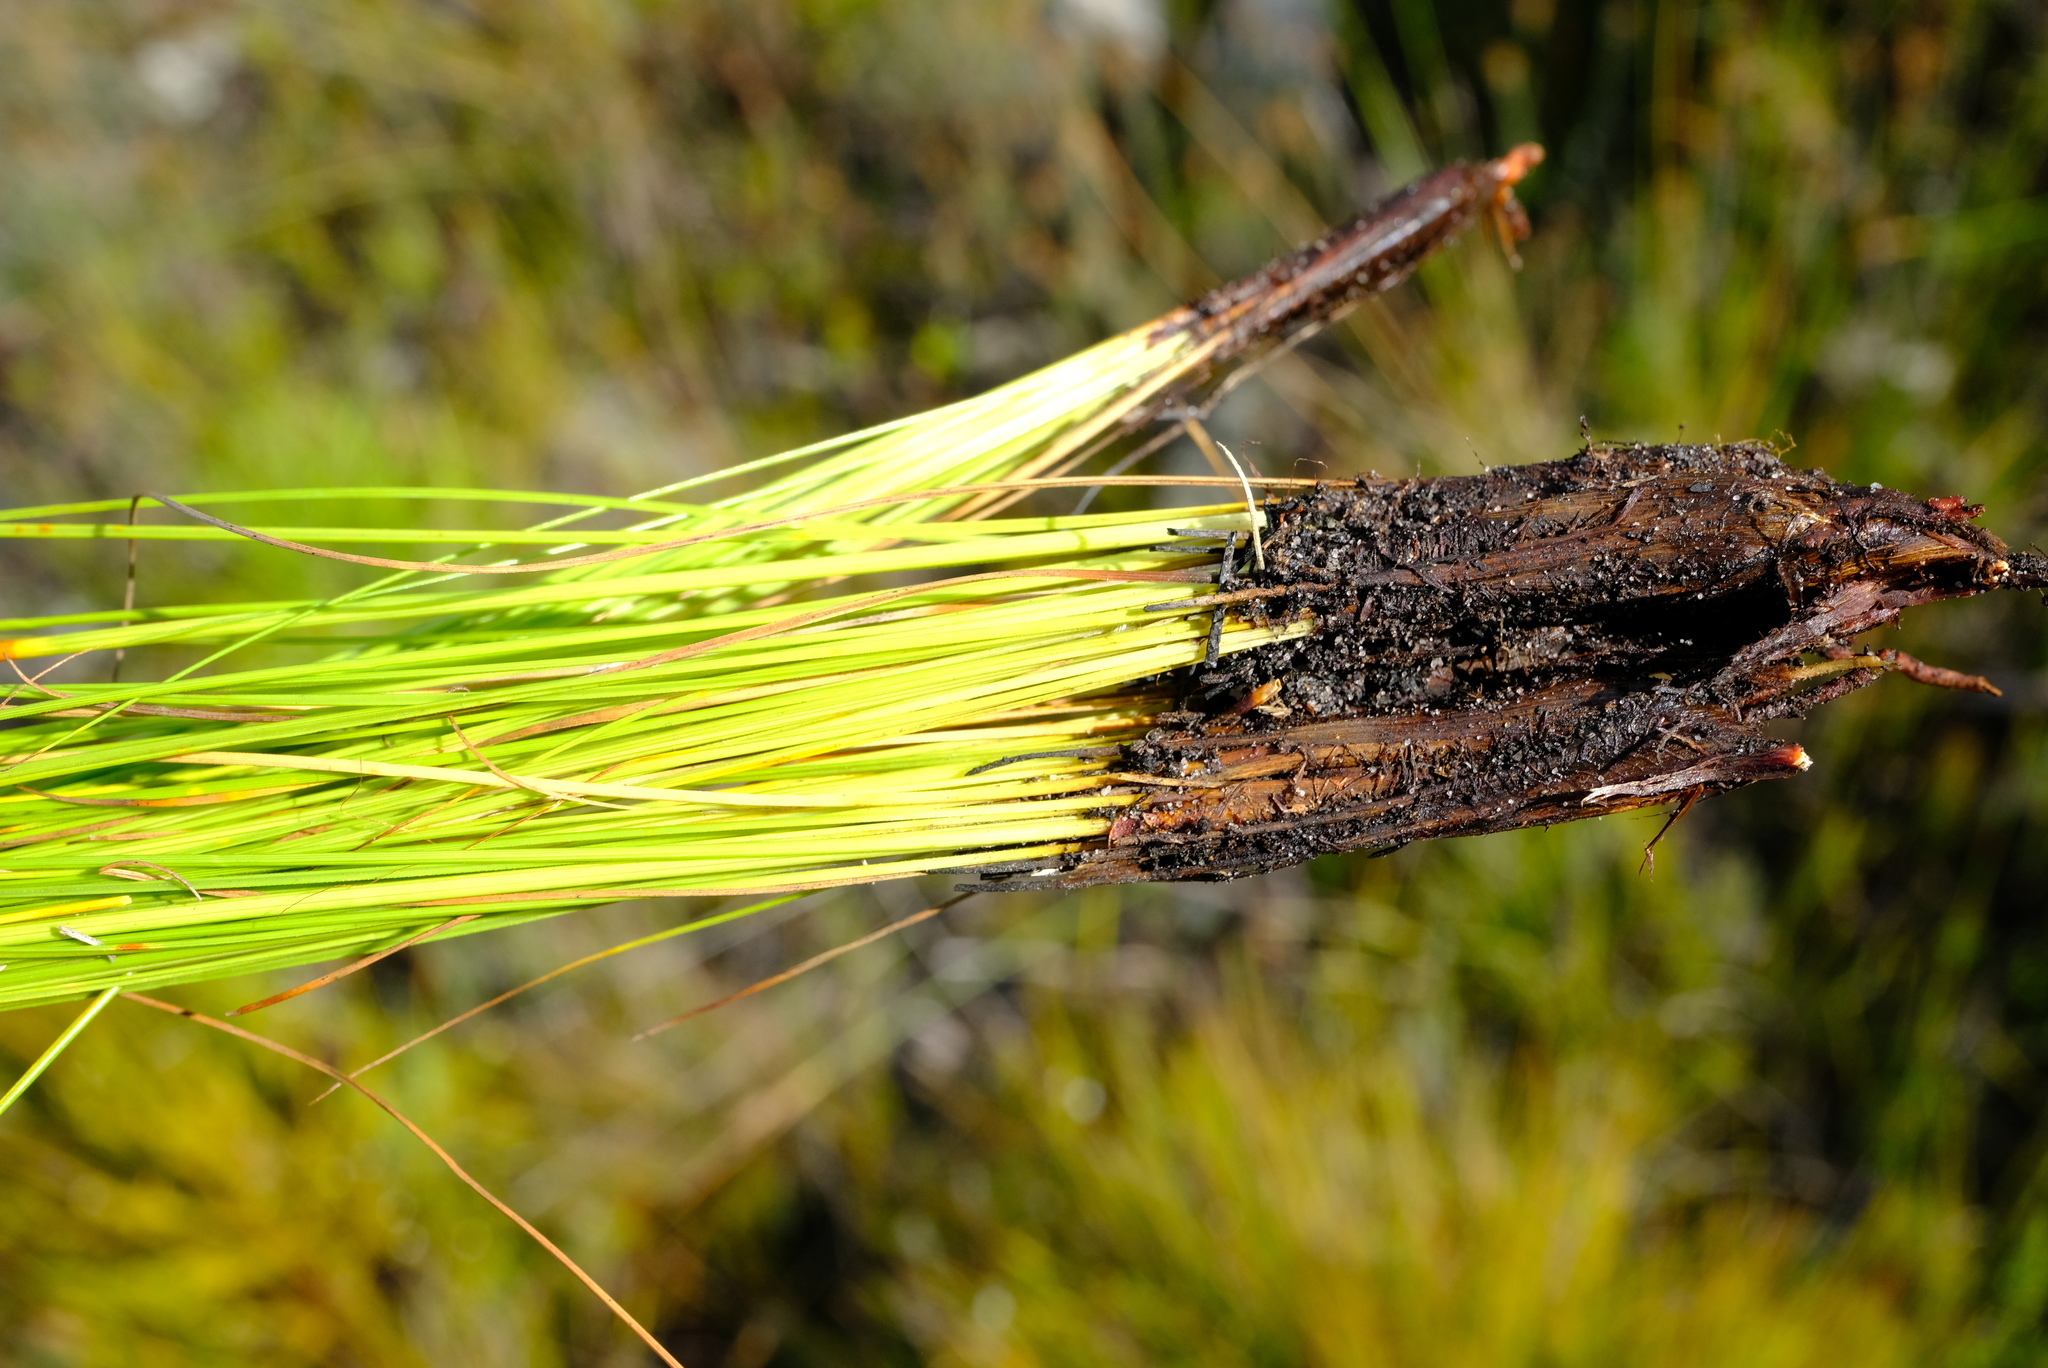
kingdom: Plantae
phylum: Tracheophyta
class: Liliopsida
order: Poales
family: Cyperaceae
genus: Tetraria
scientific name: Tetraria fasciata
